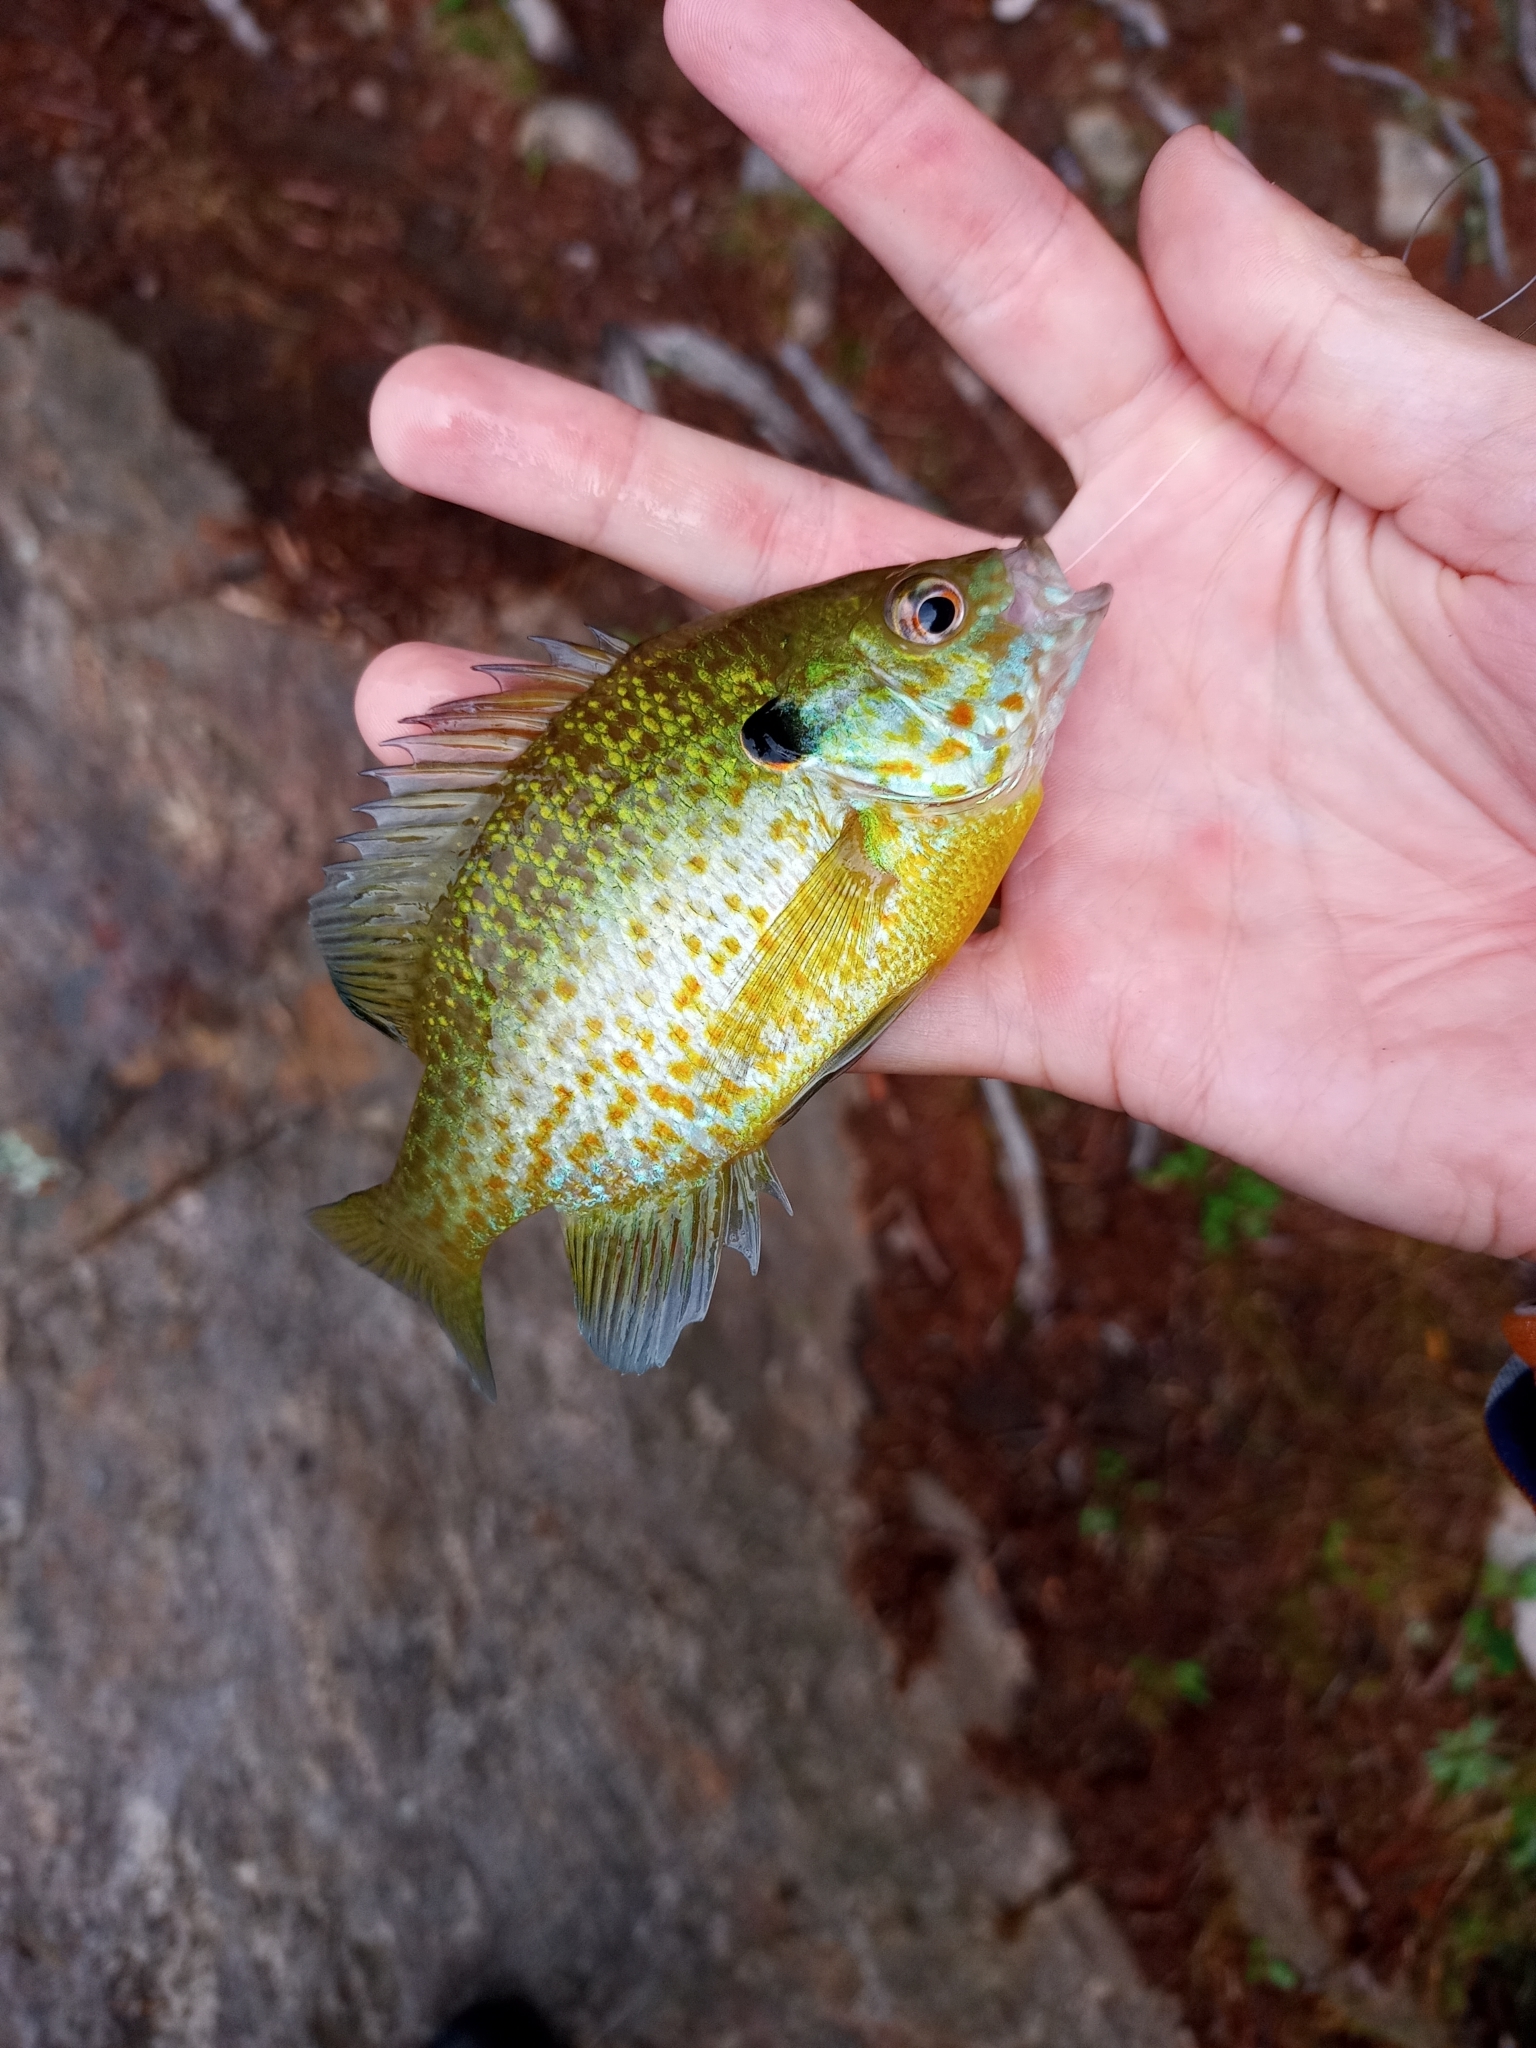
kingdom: Animalia
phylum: Chordata
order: Perciformes
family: Centrarchidae
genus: Lepomis
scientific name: Lepomis
